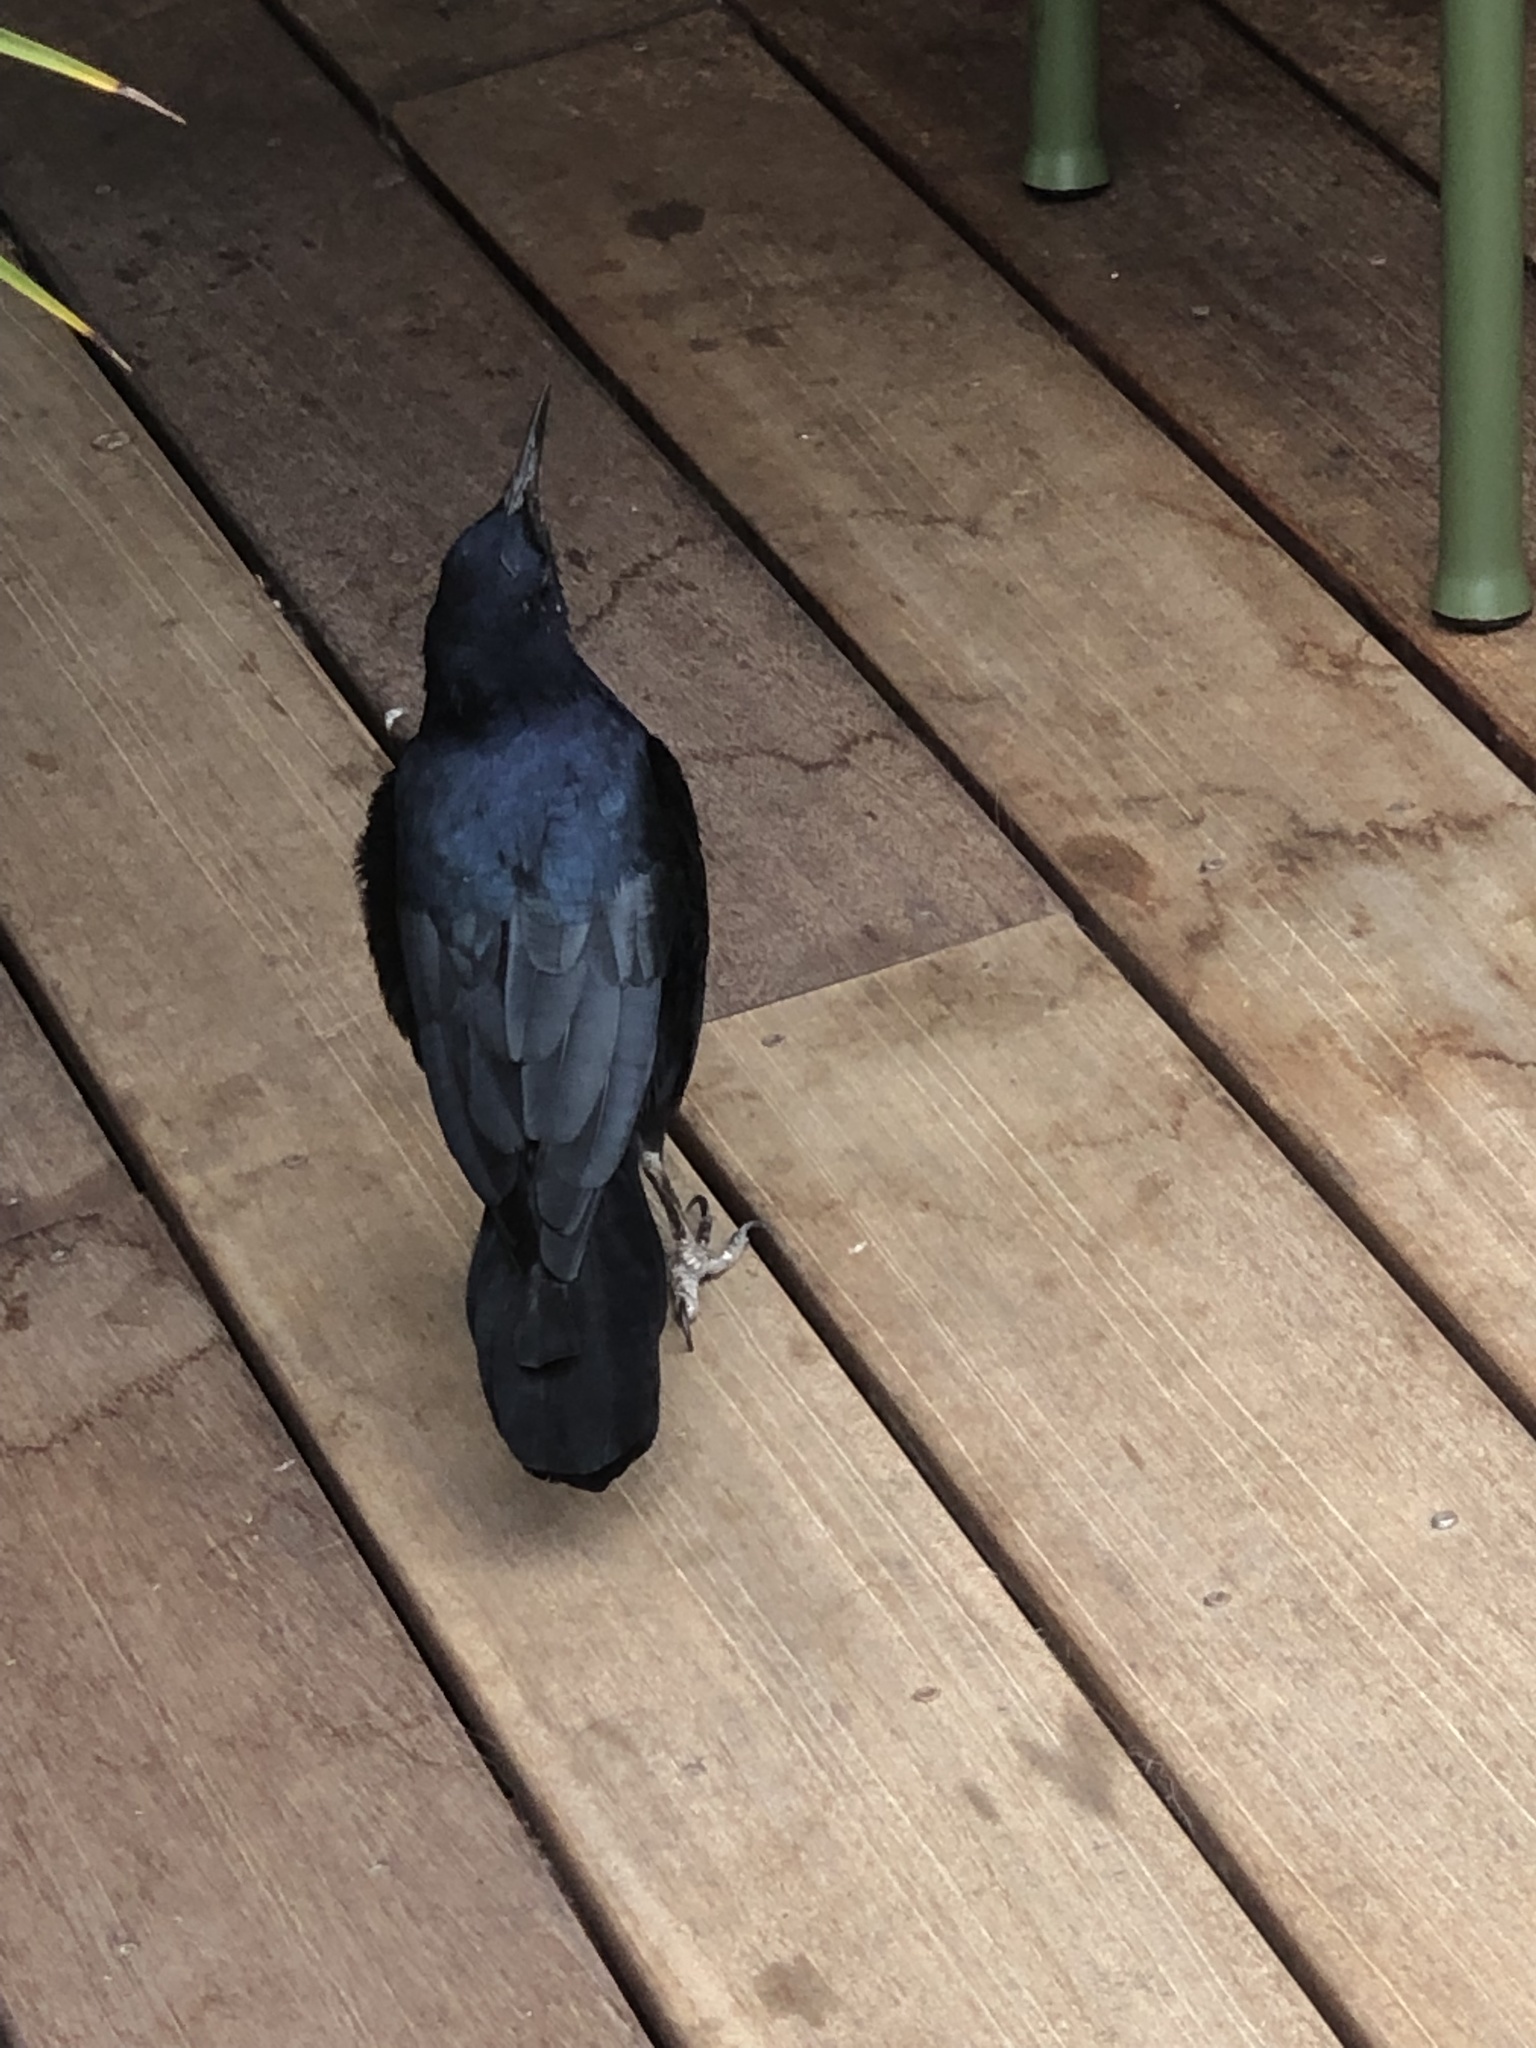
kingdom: Animalia
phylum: Chordata
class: Aves
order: Passeriformes
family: Icteridae
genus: Quiscalus
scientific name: Quiscalus mexicanus
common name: Great-tailed grackle
